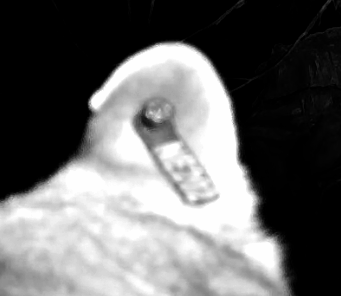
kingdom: Animalia
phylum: Chordata
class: Mammalia
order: Carnivora
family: Felidae
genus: Puma
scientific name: Puma concolor
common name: Puma
